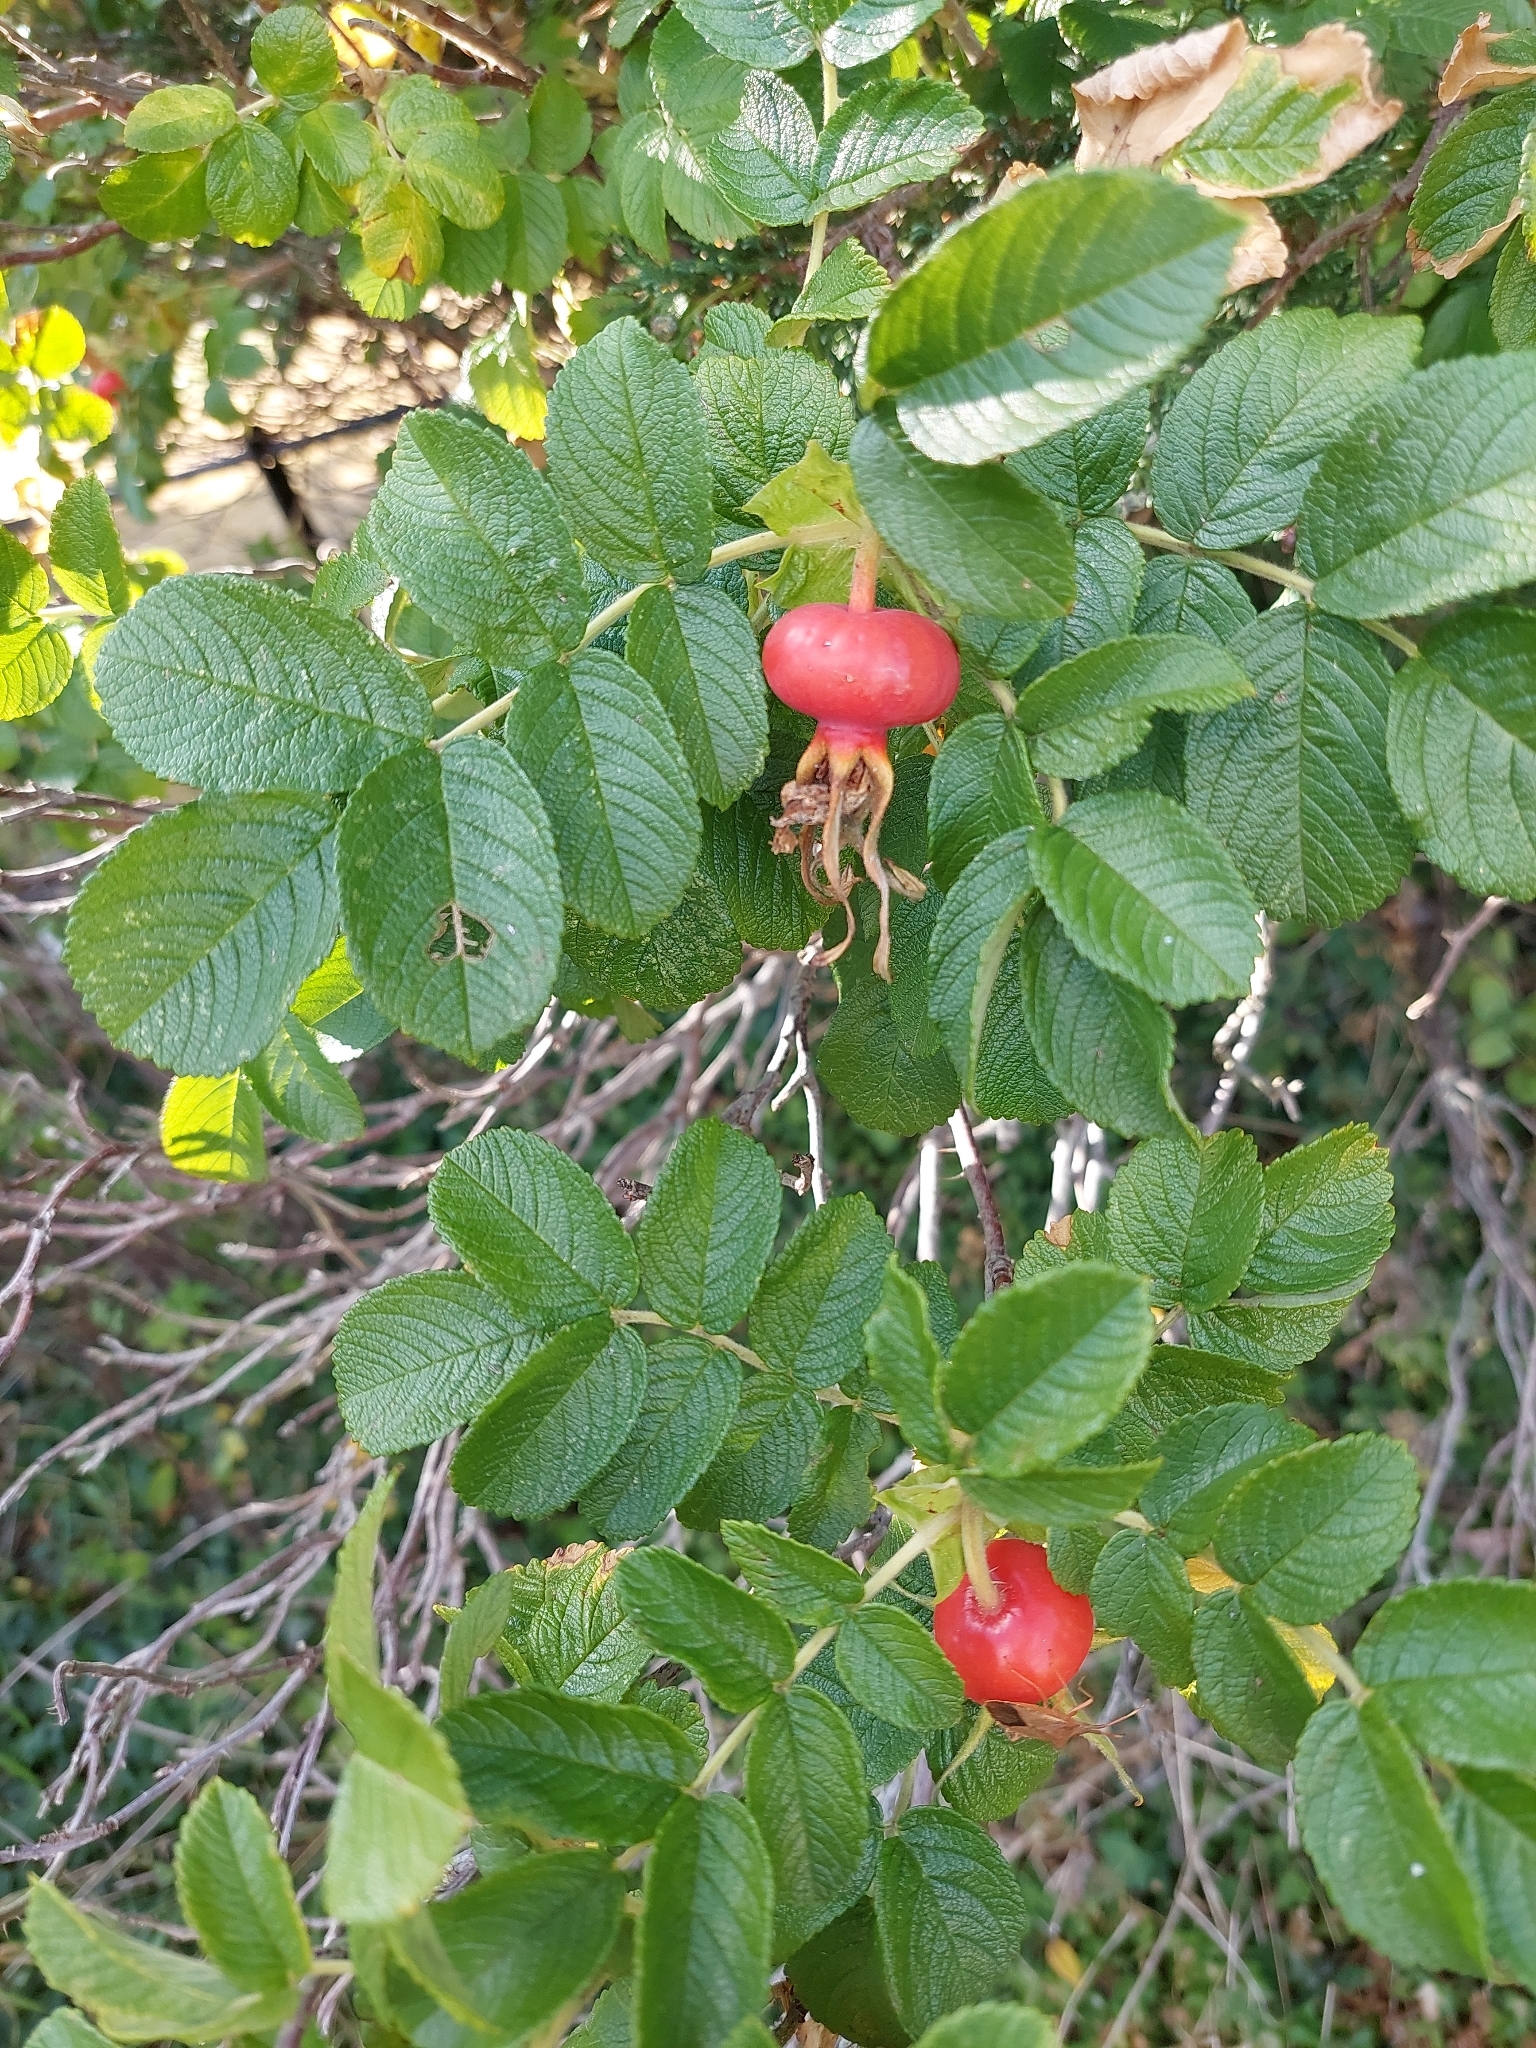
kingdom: Plantae
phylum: Tracheophyta
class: Magnoliopsida
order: Rosales
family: Rosaceae
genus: Rosa
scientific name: Rosa rugosa
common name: Japanese rose
